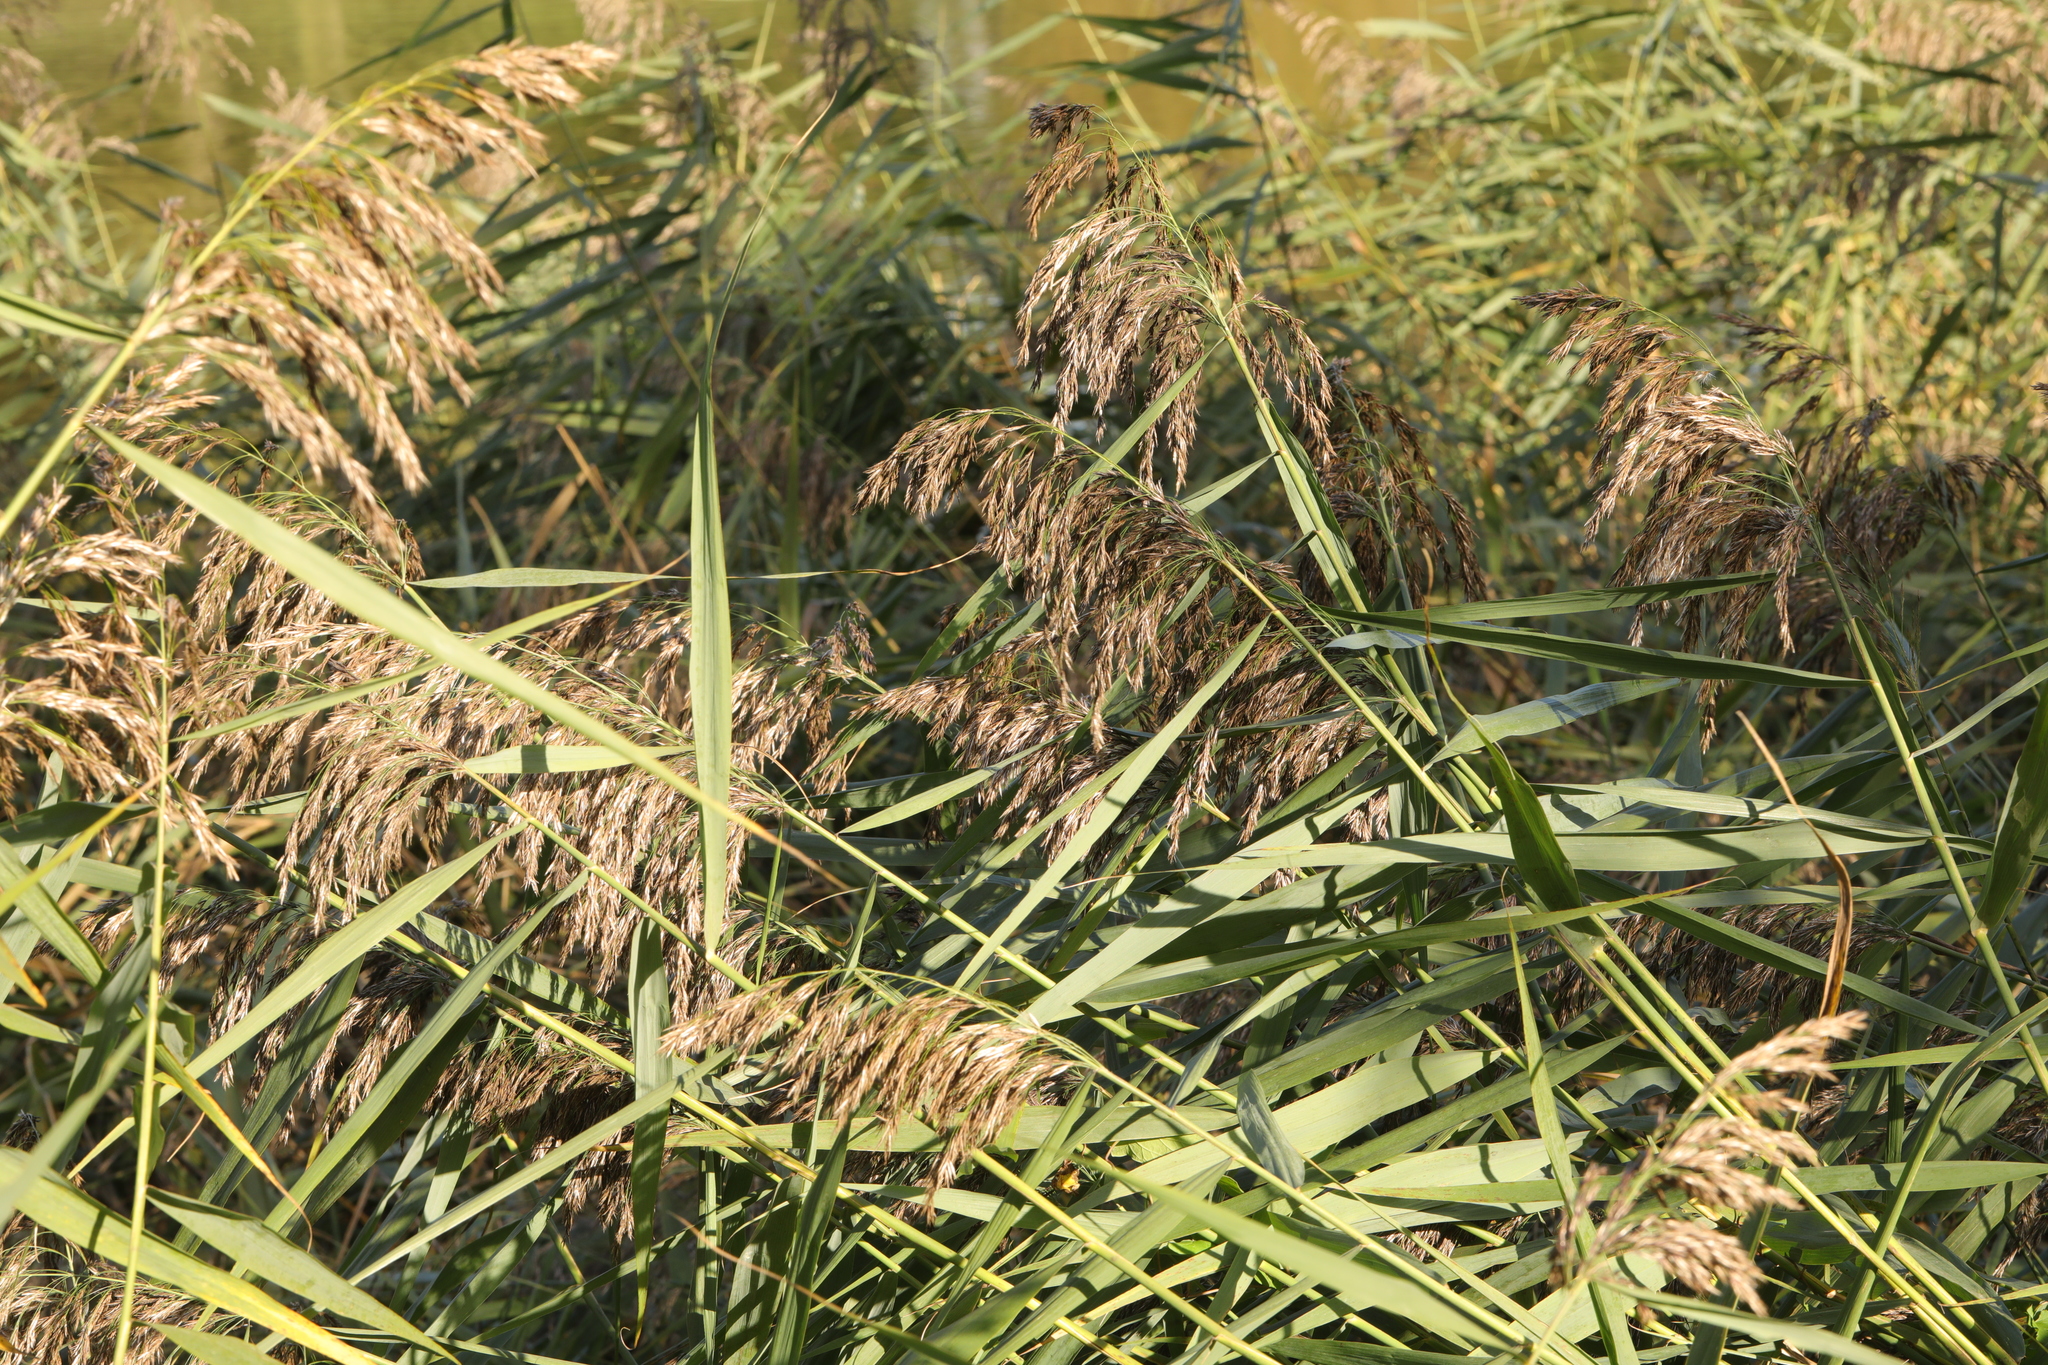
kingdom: Plantae
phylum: Tracheophyta
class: Liliopsida
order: Poales
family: Poaceae
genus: Phragmites
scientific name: Phragmites australis
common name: Common reed
